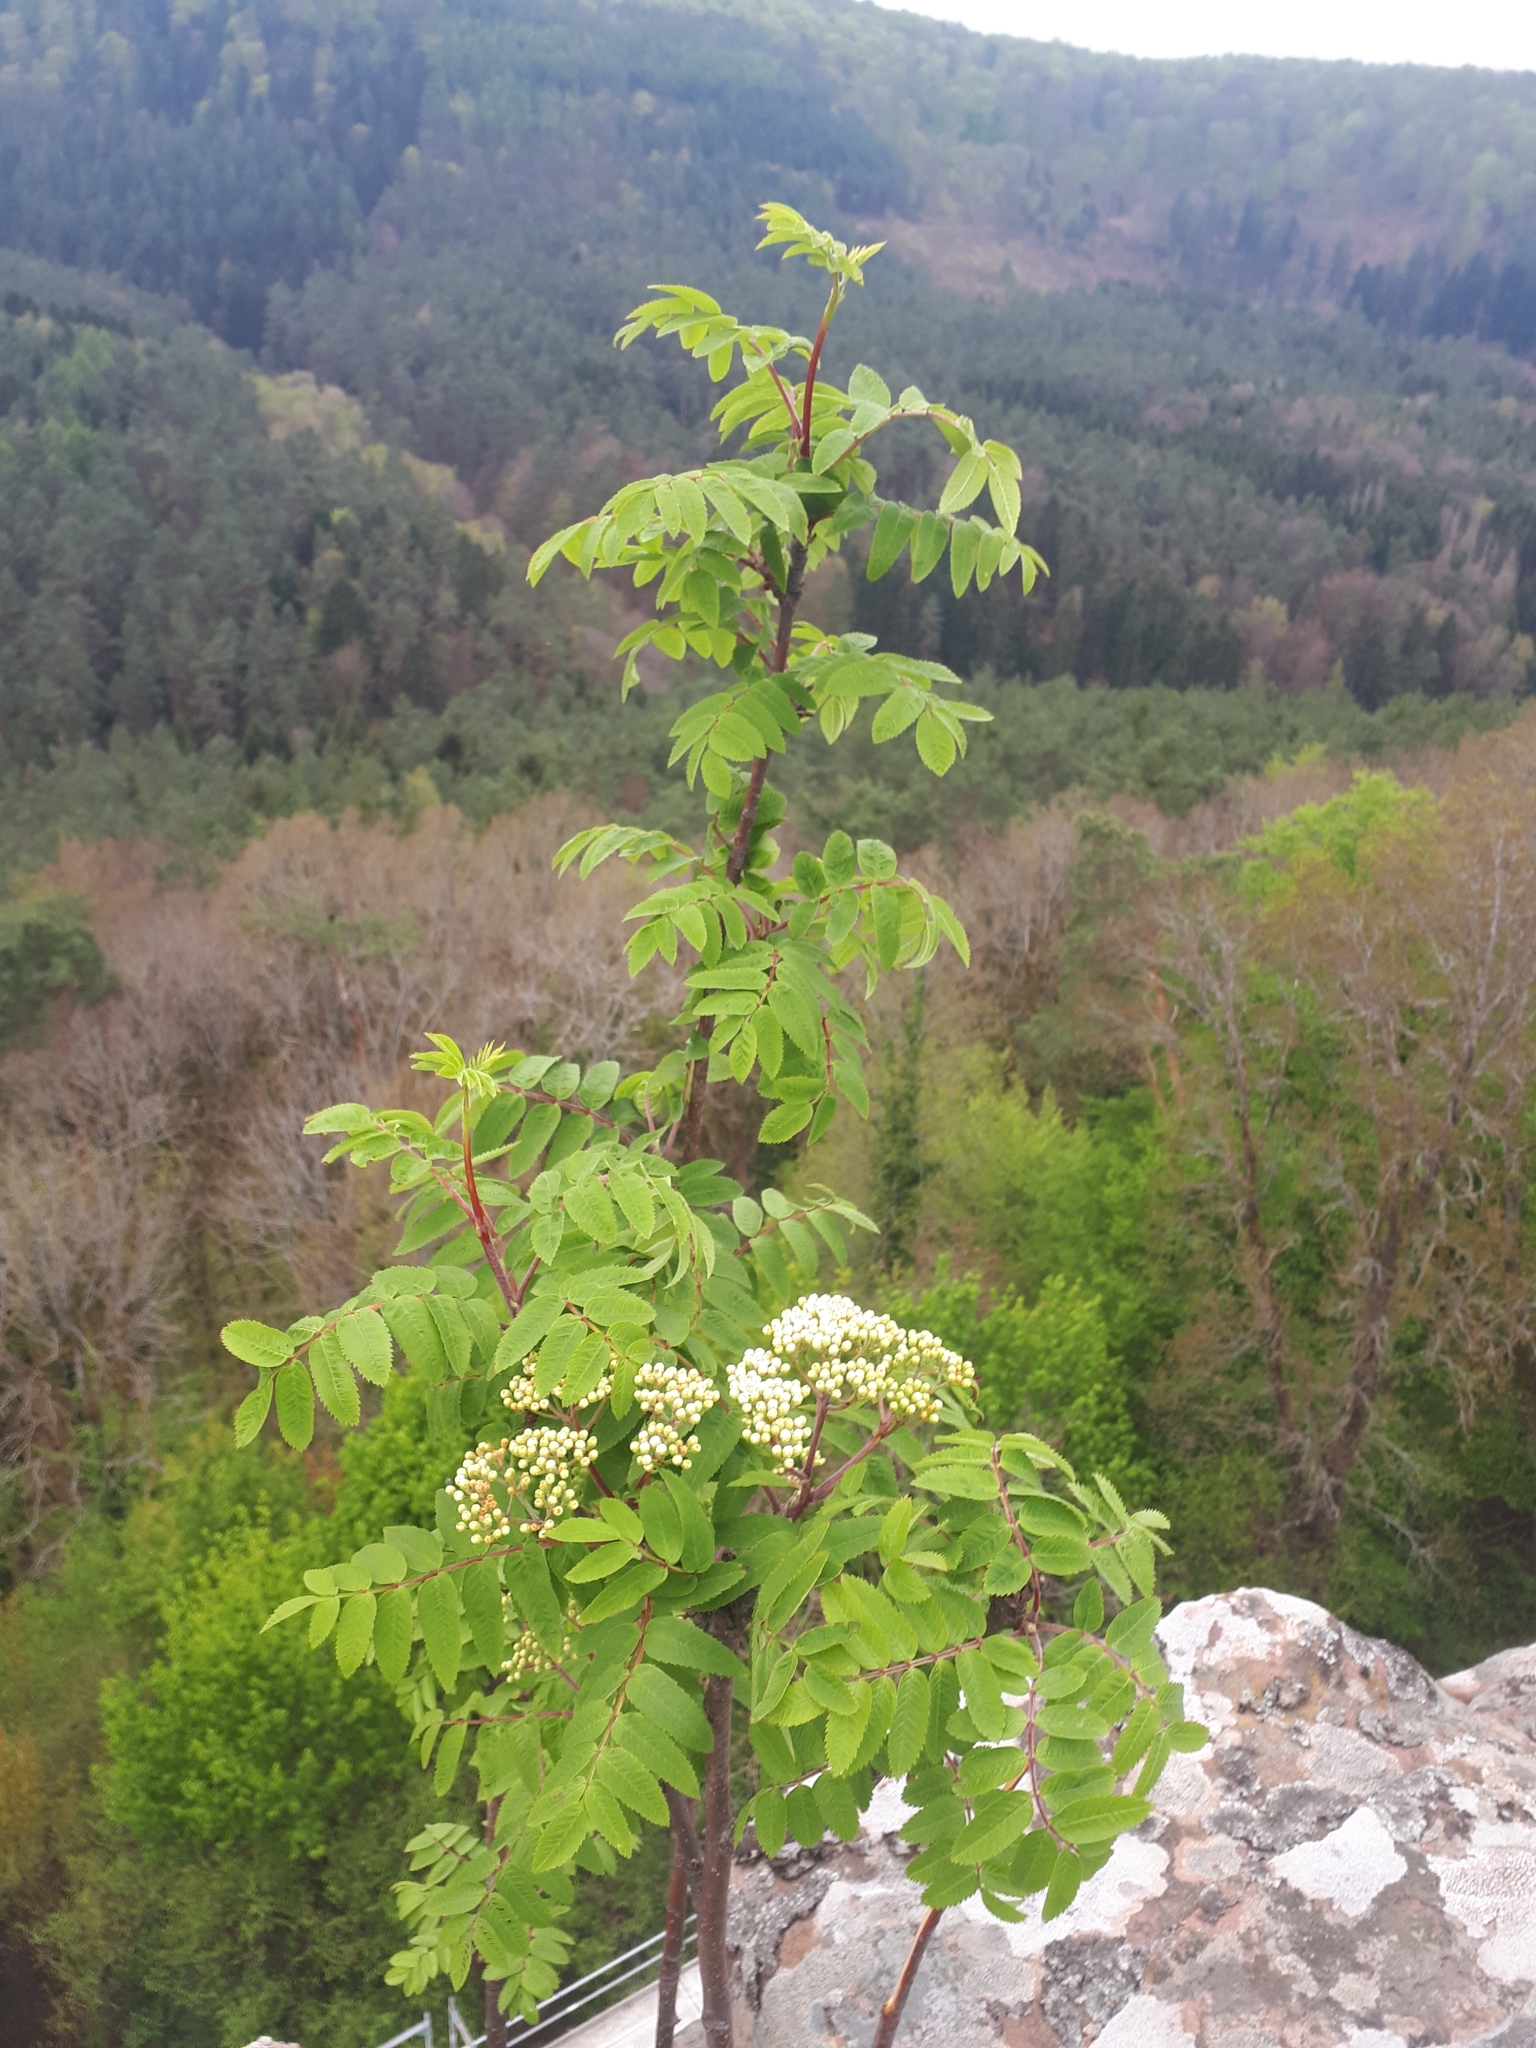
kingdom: Plantae
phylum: Tracheophyta
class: Magnoliopsida
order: Rosales
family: Rosaceae
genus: Sorbus
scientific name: Sorbus aucuparia
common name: Rowan
